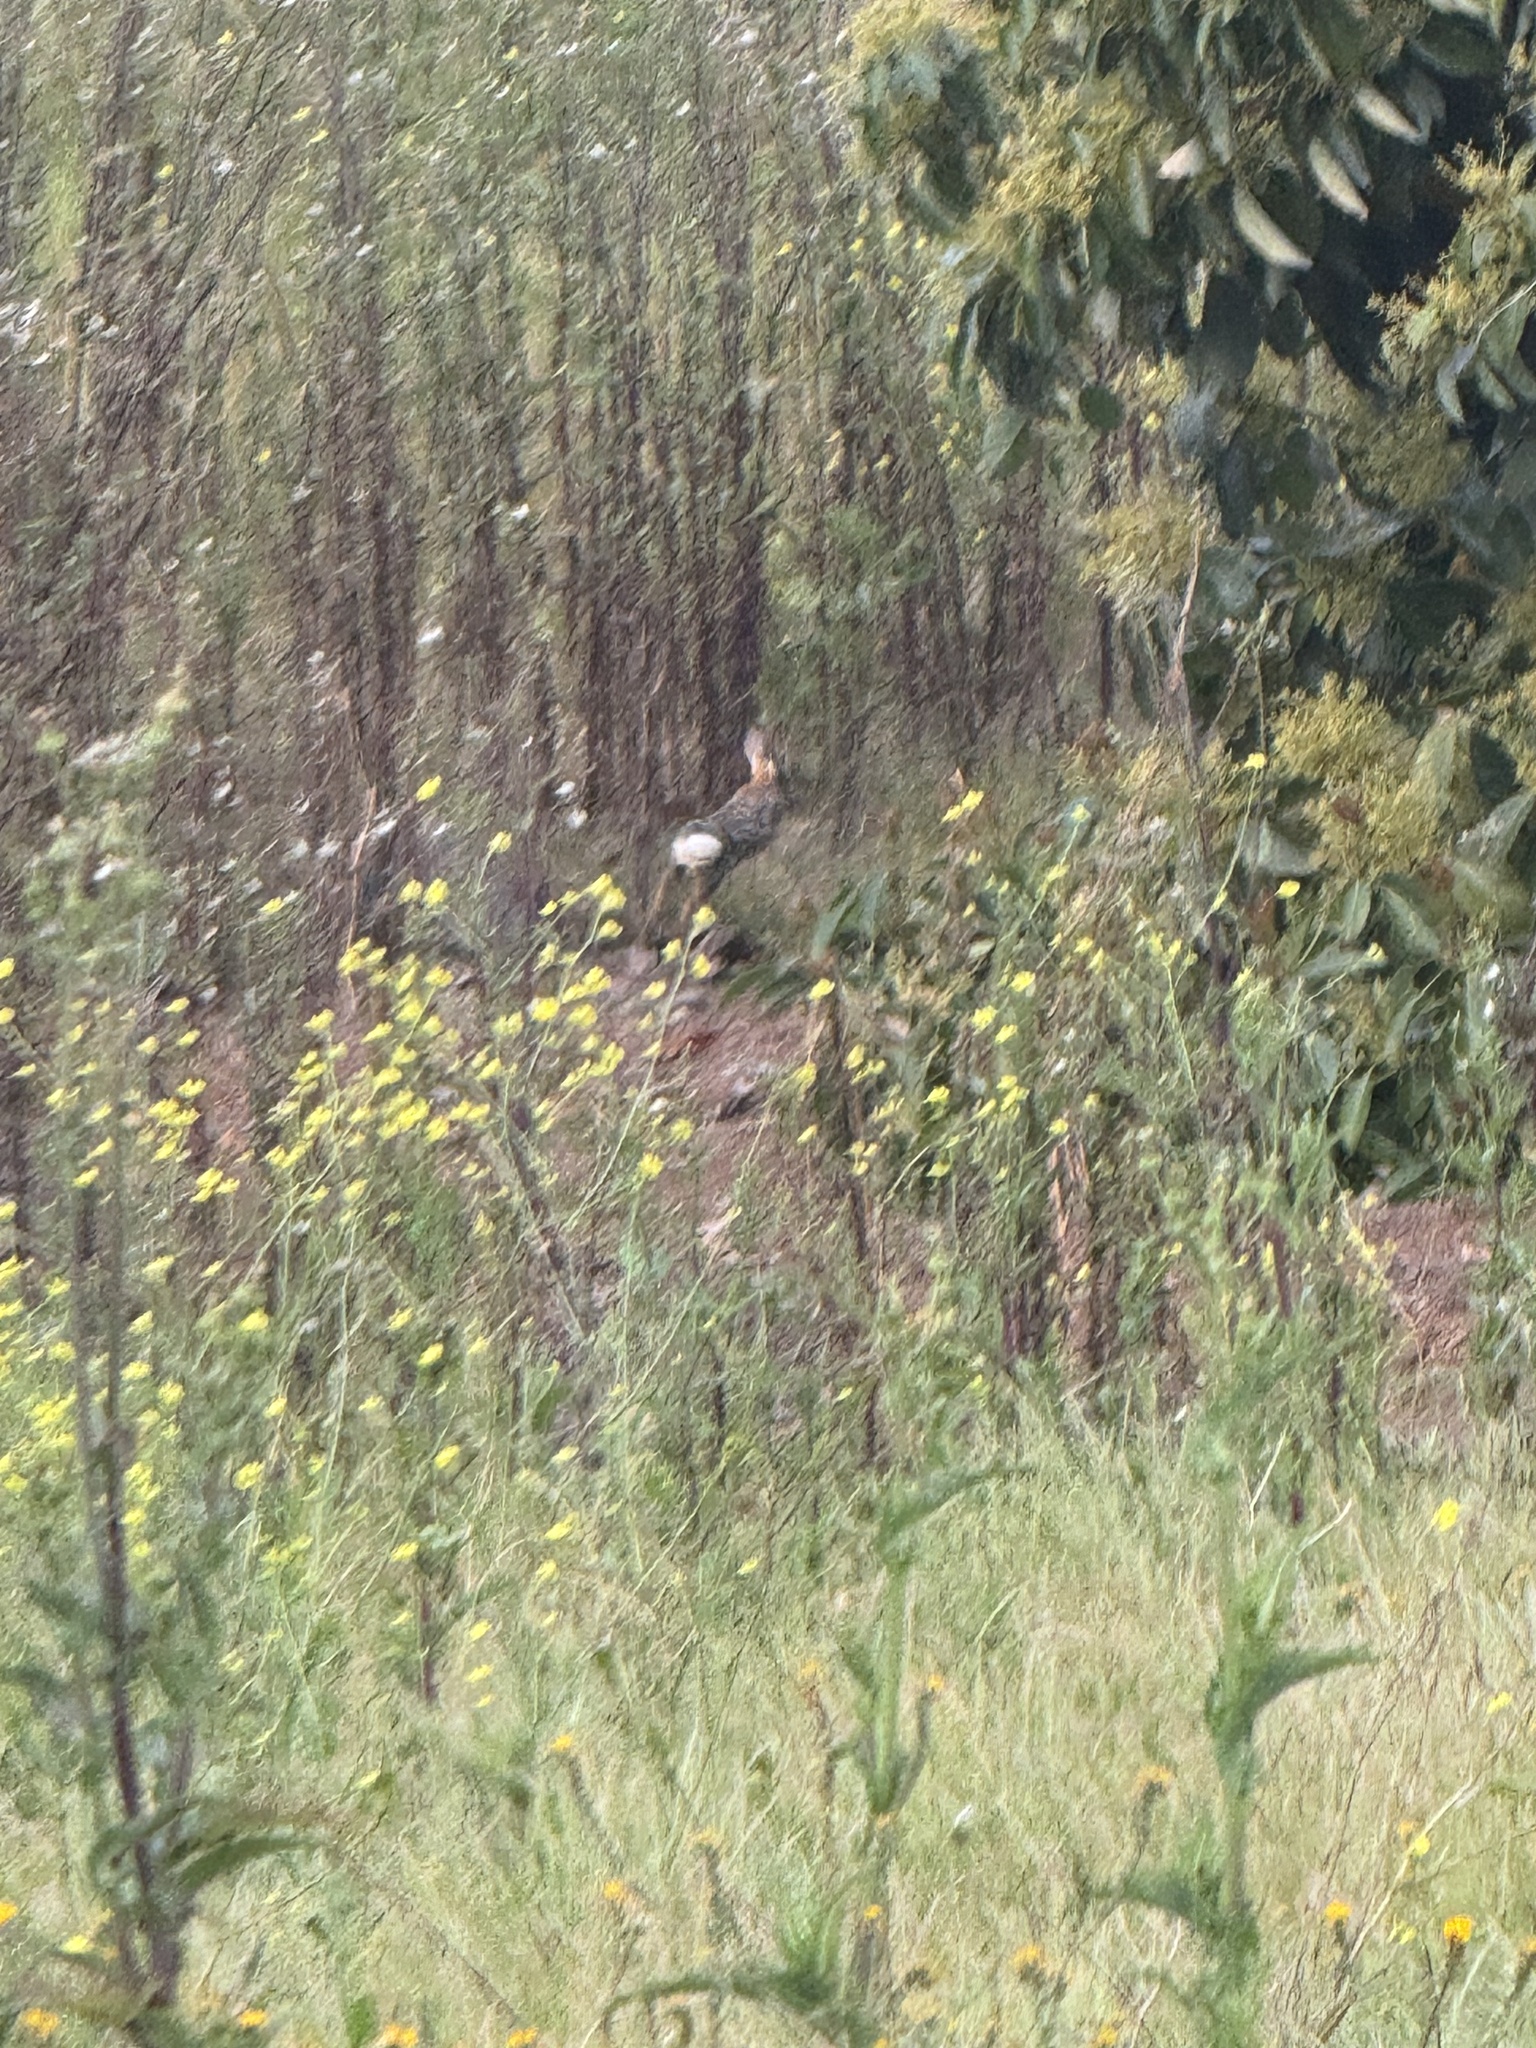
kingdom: Animalia
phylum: Chordata
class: Mammalia
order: Lagomorpha
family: Leporidae
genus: Sylvilagus
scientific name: Sylvilagus audubonii
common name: Desert cottontail
